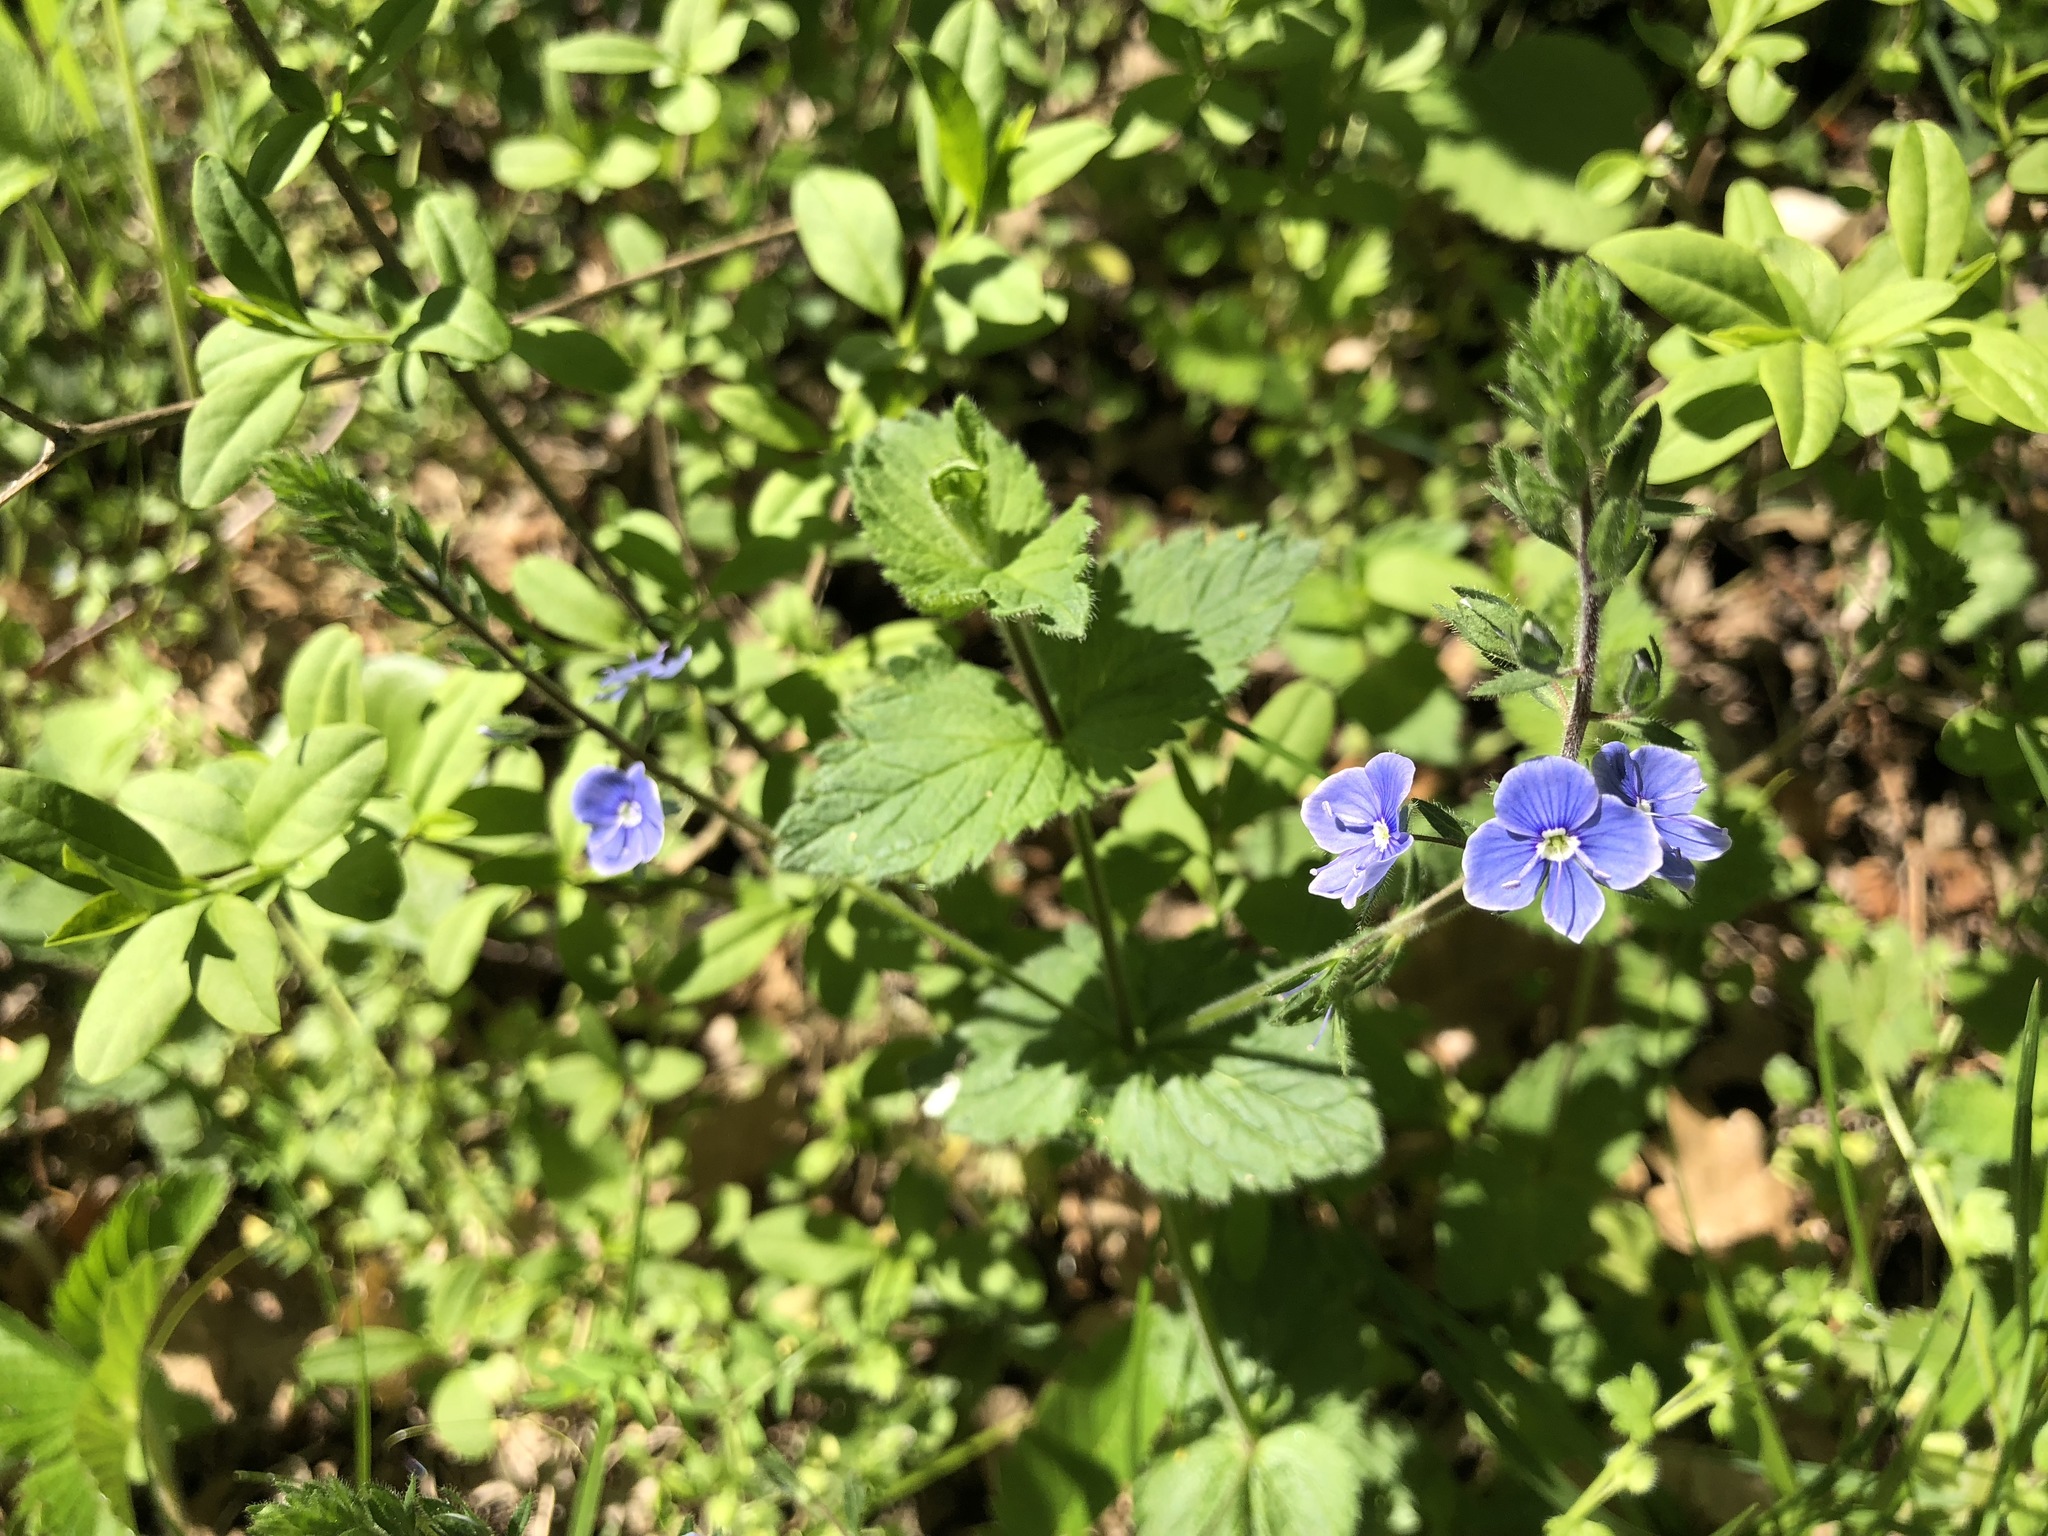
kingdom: Plantae
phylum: Tracheophyta
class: Magnoliopsida
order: Lamiales
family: Plantaginaceae
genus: Veronica
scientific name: Veronica chamaedrys
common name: Germander speedwell
